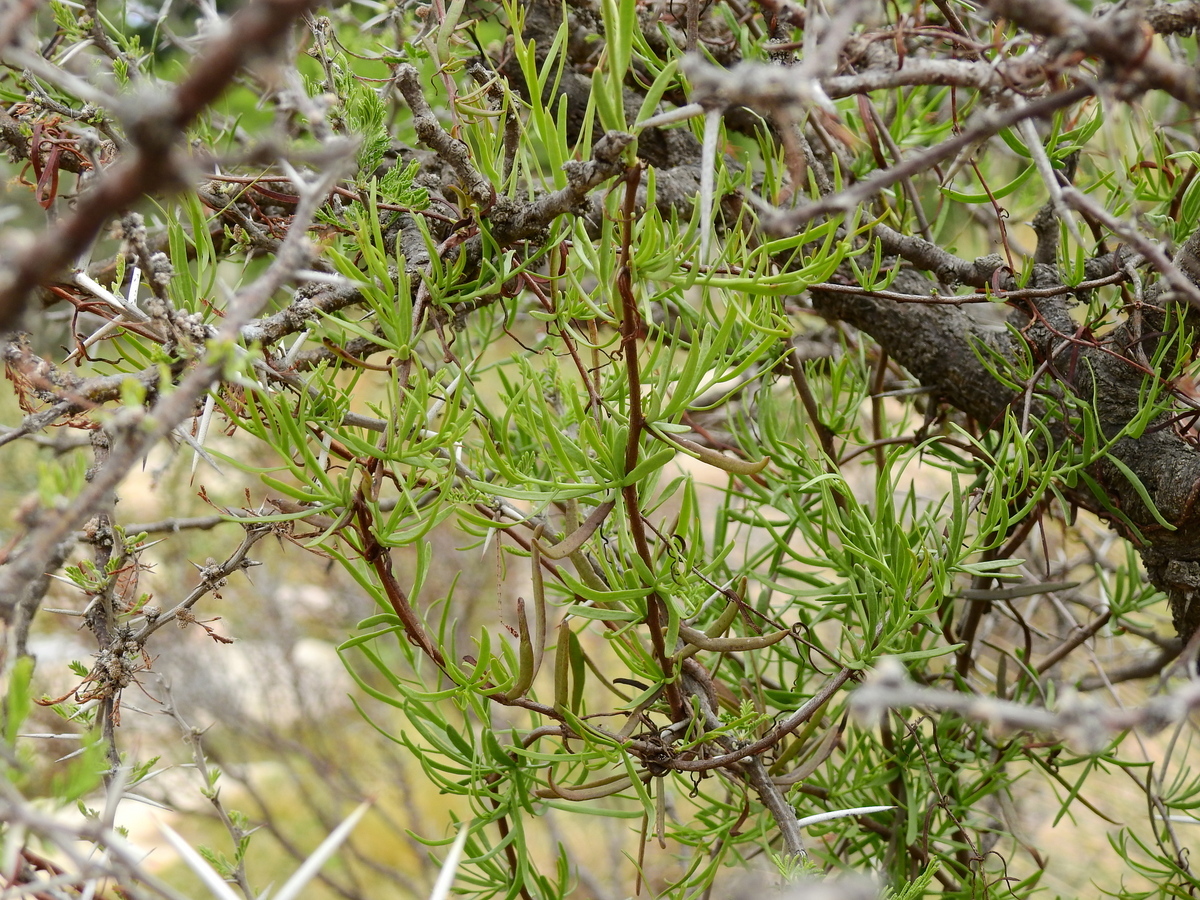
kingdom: Plantae
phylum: Tracheophyta
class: Magnoliopsida
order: Santalales
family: Loranthaceae
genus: Tripodanthus
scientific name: Tripodanthus flagellaris
